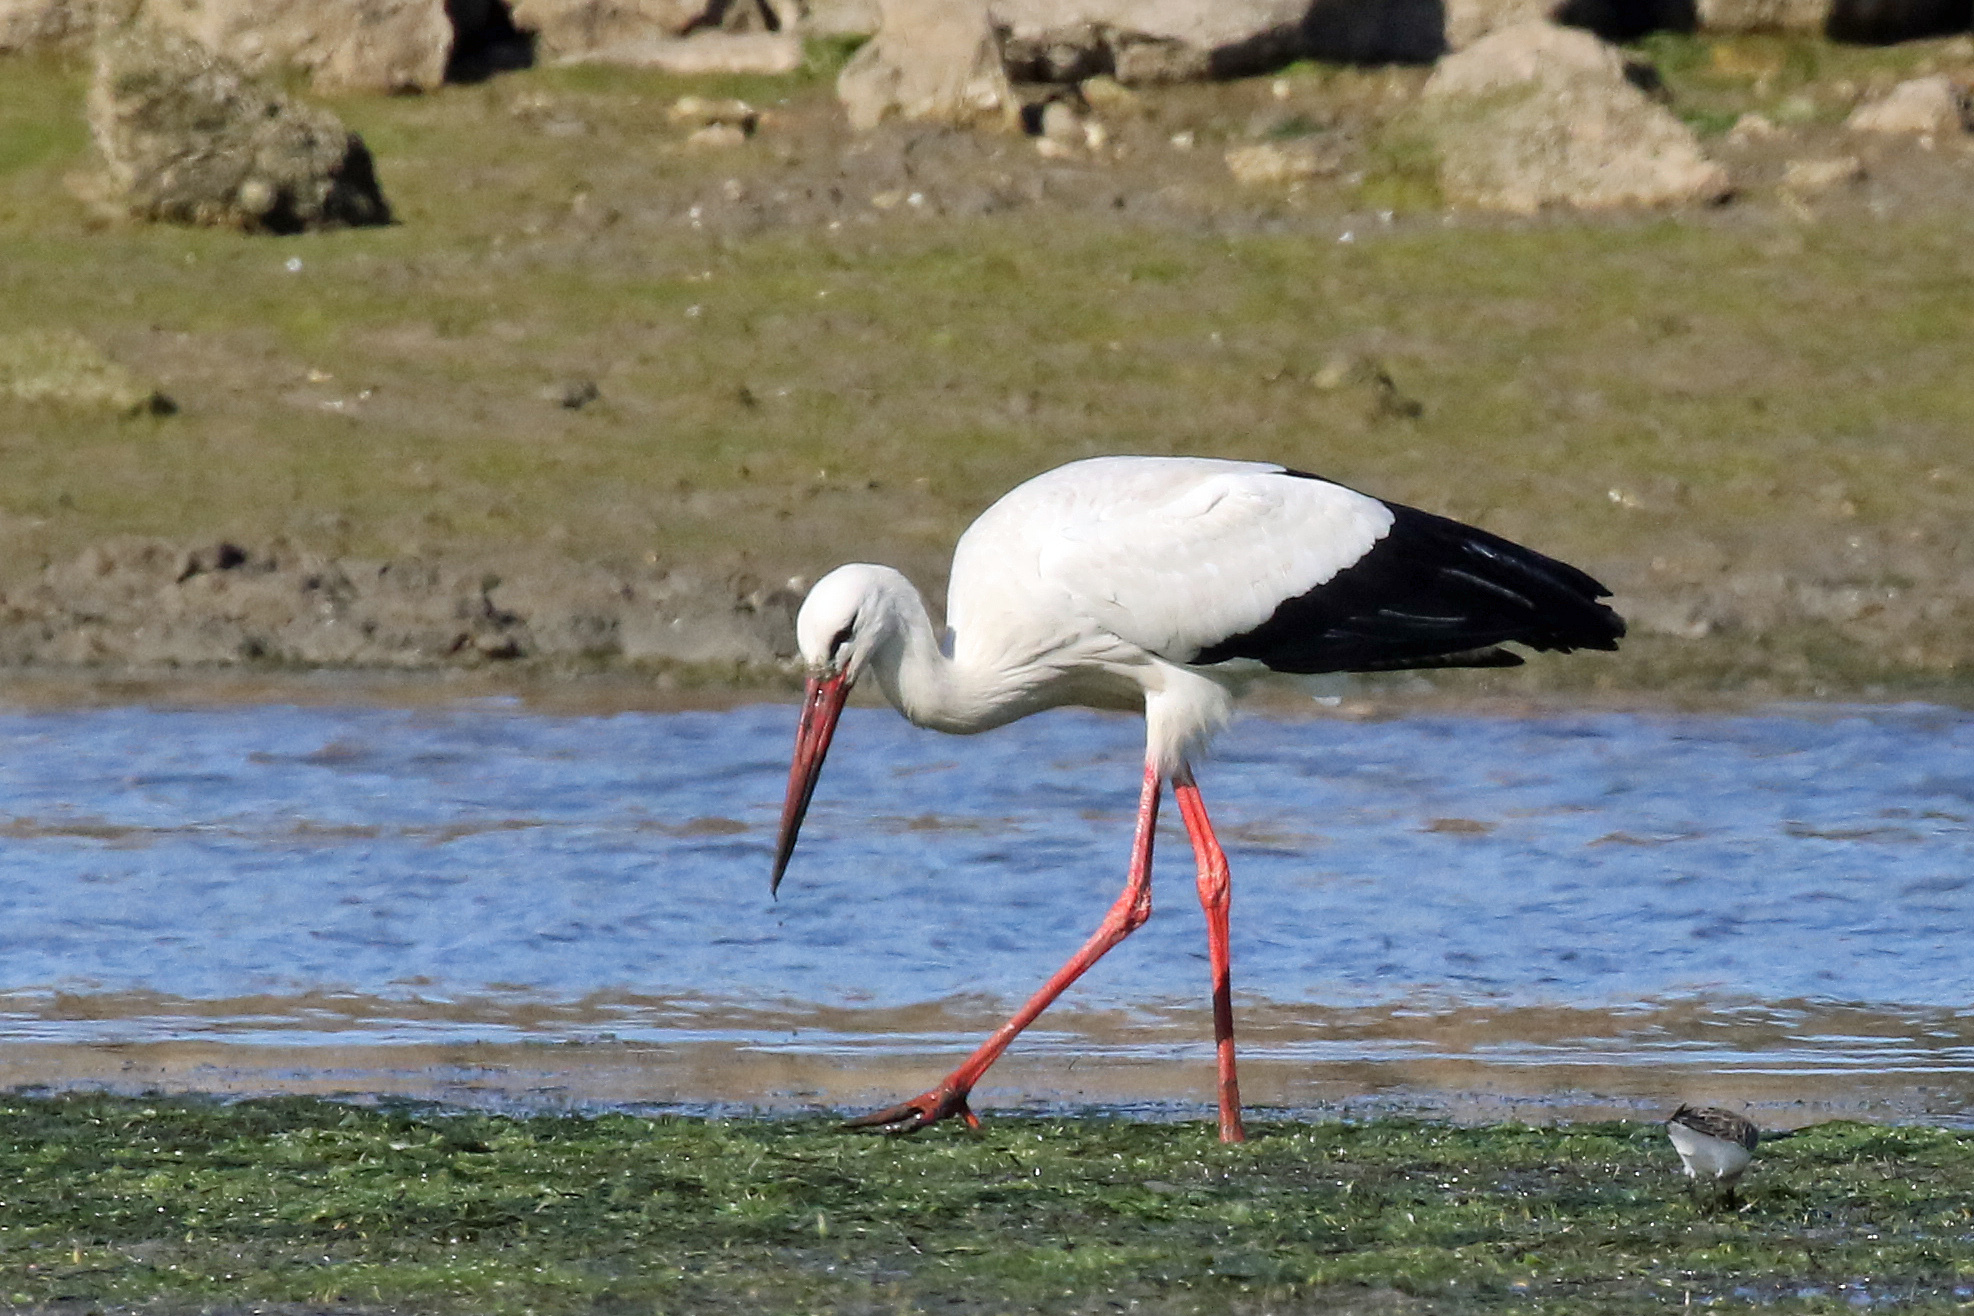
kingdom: Animalia
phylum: Chordata
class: Aves
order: Ciconiiformes
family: Ciconiidae
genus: Ciconia
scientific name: Ciconia ciconia
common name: White stork
